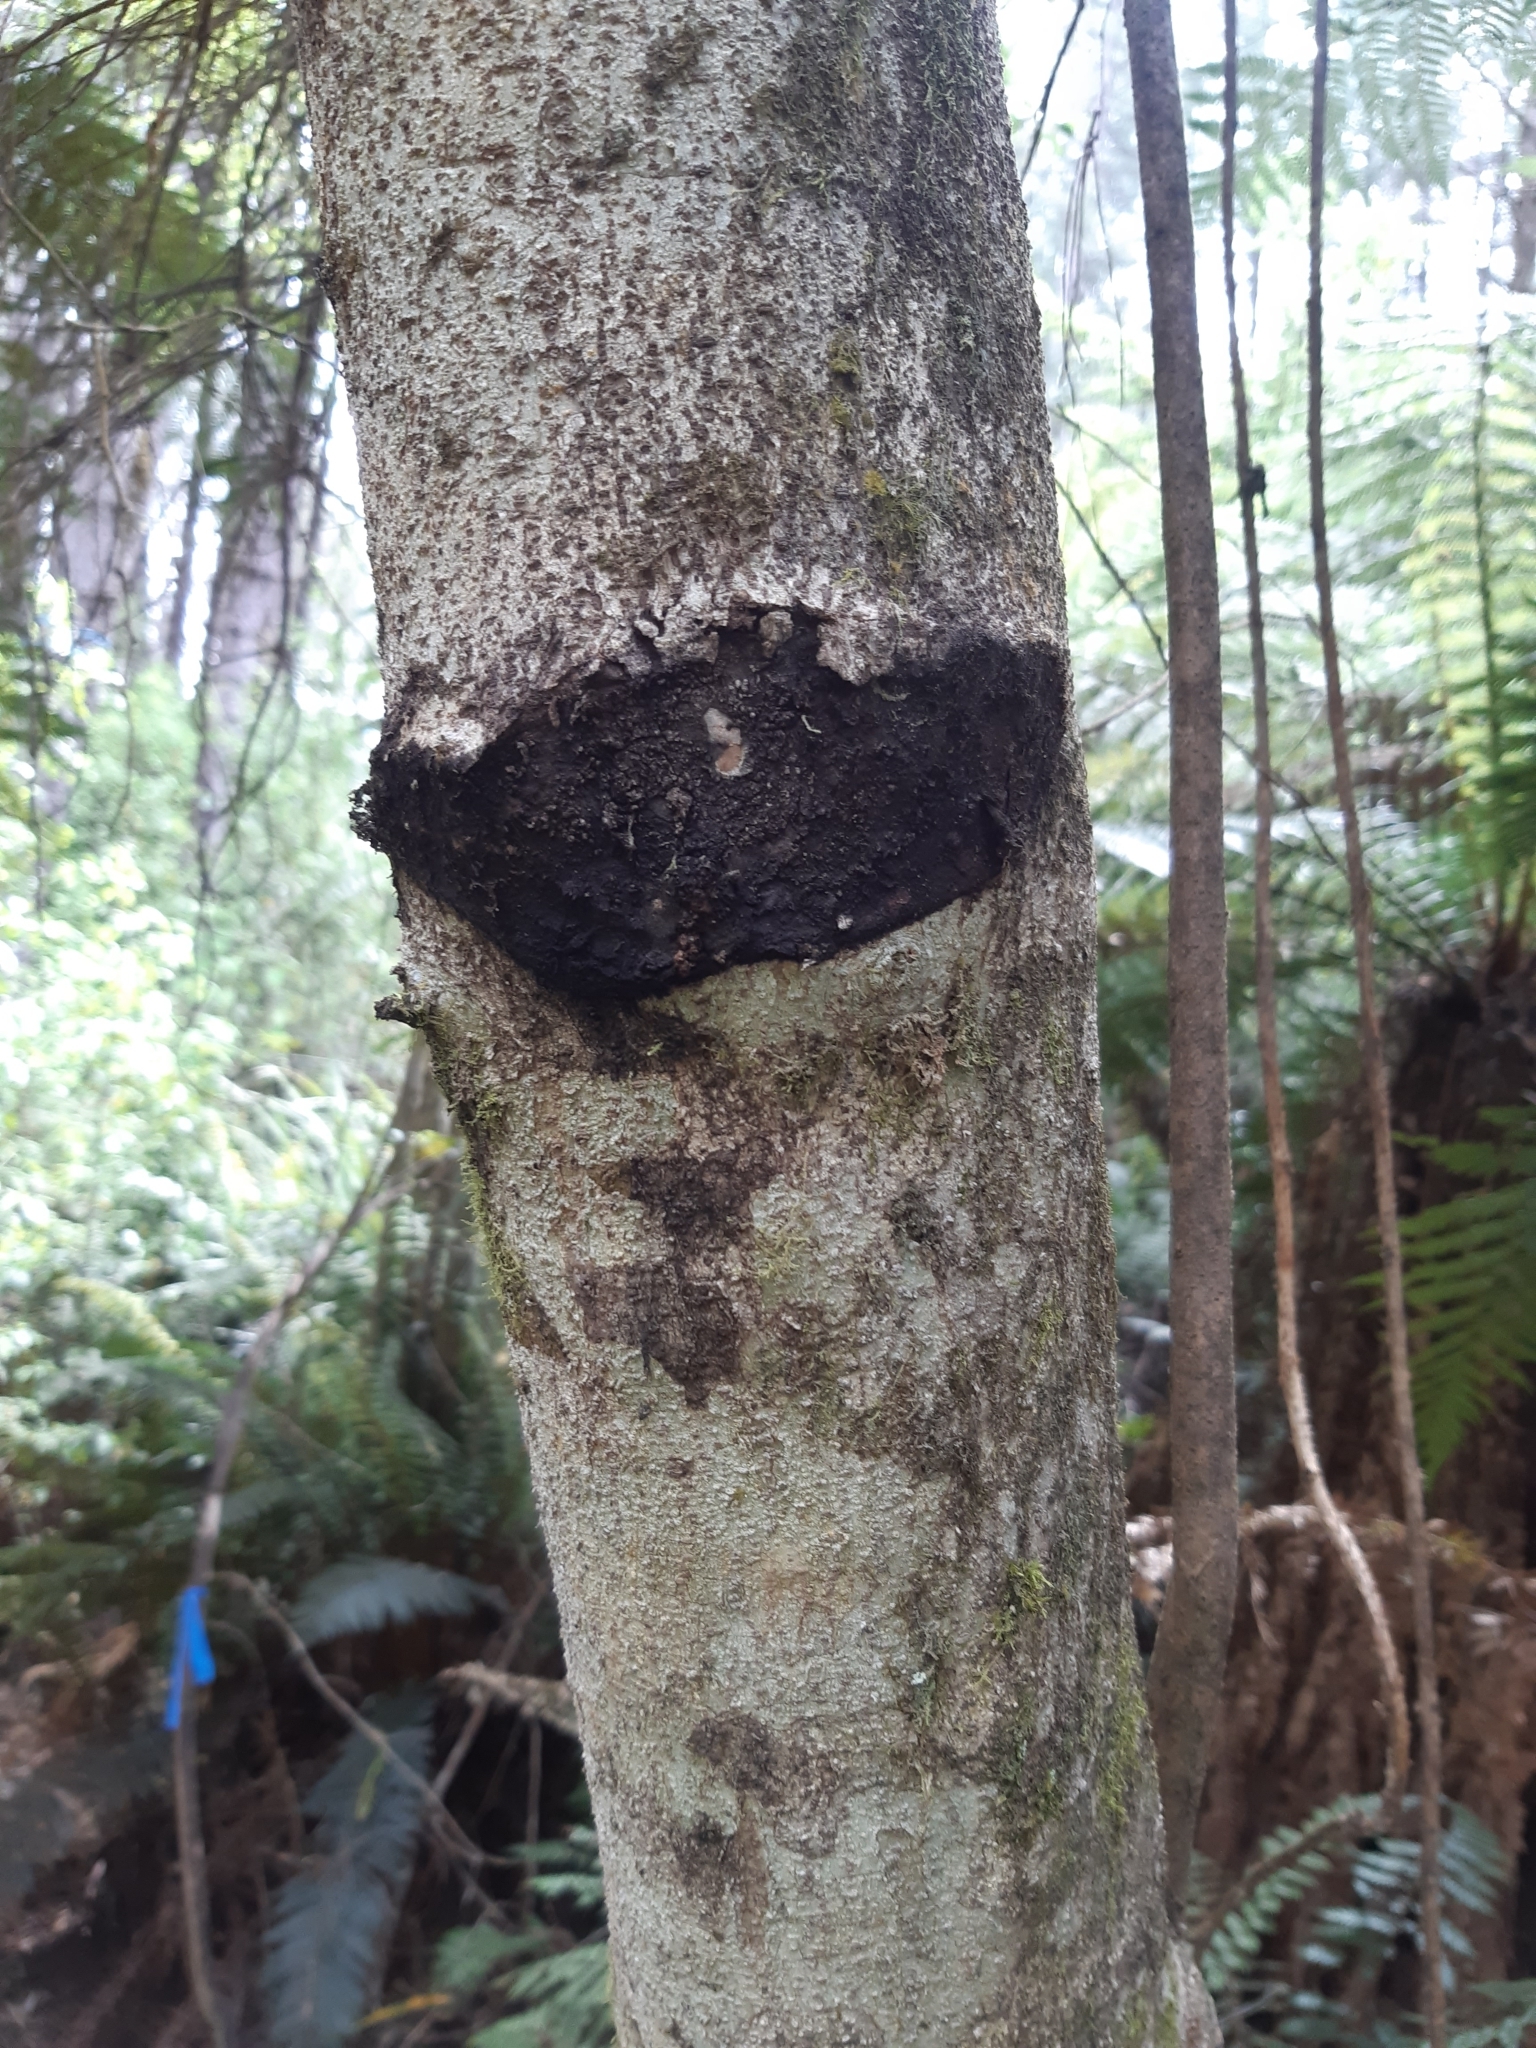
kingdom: Animalia
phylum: Arthropoda
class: Insecta
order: Lepidoptera
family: Hepialidae
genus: Aenetus
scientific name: Aenetus virescens
